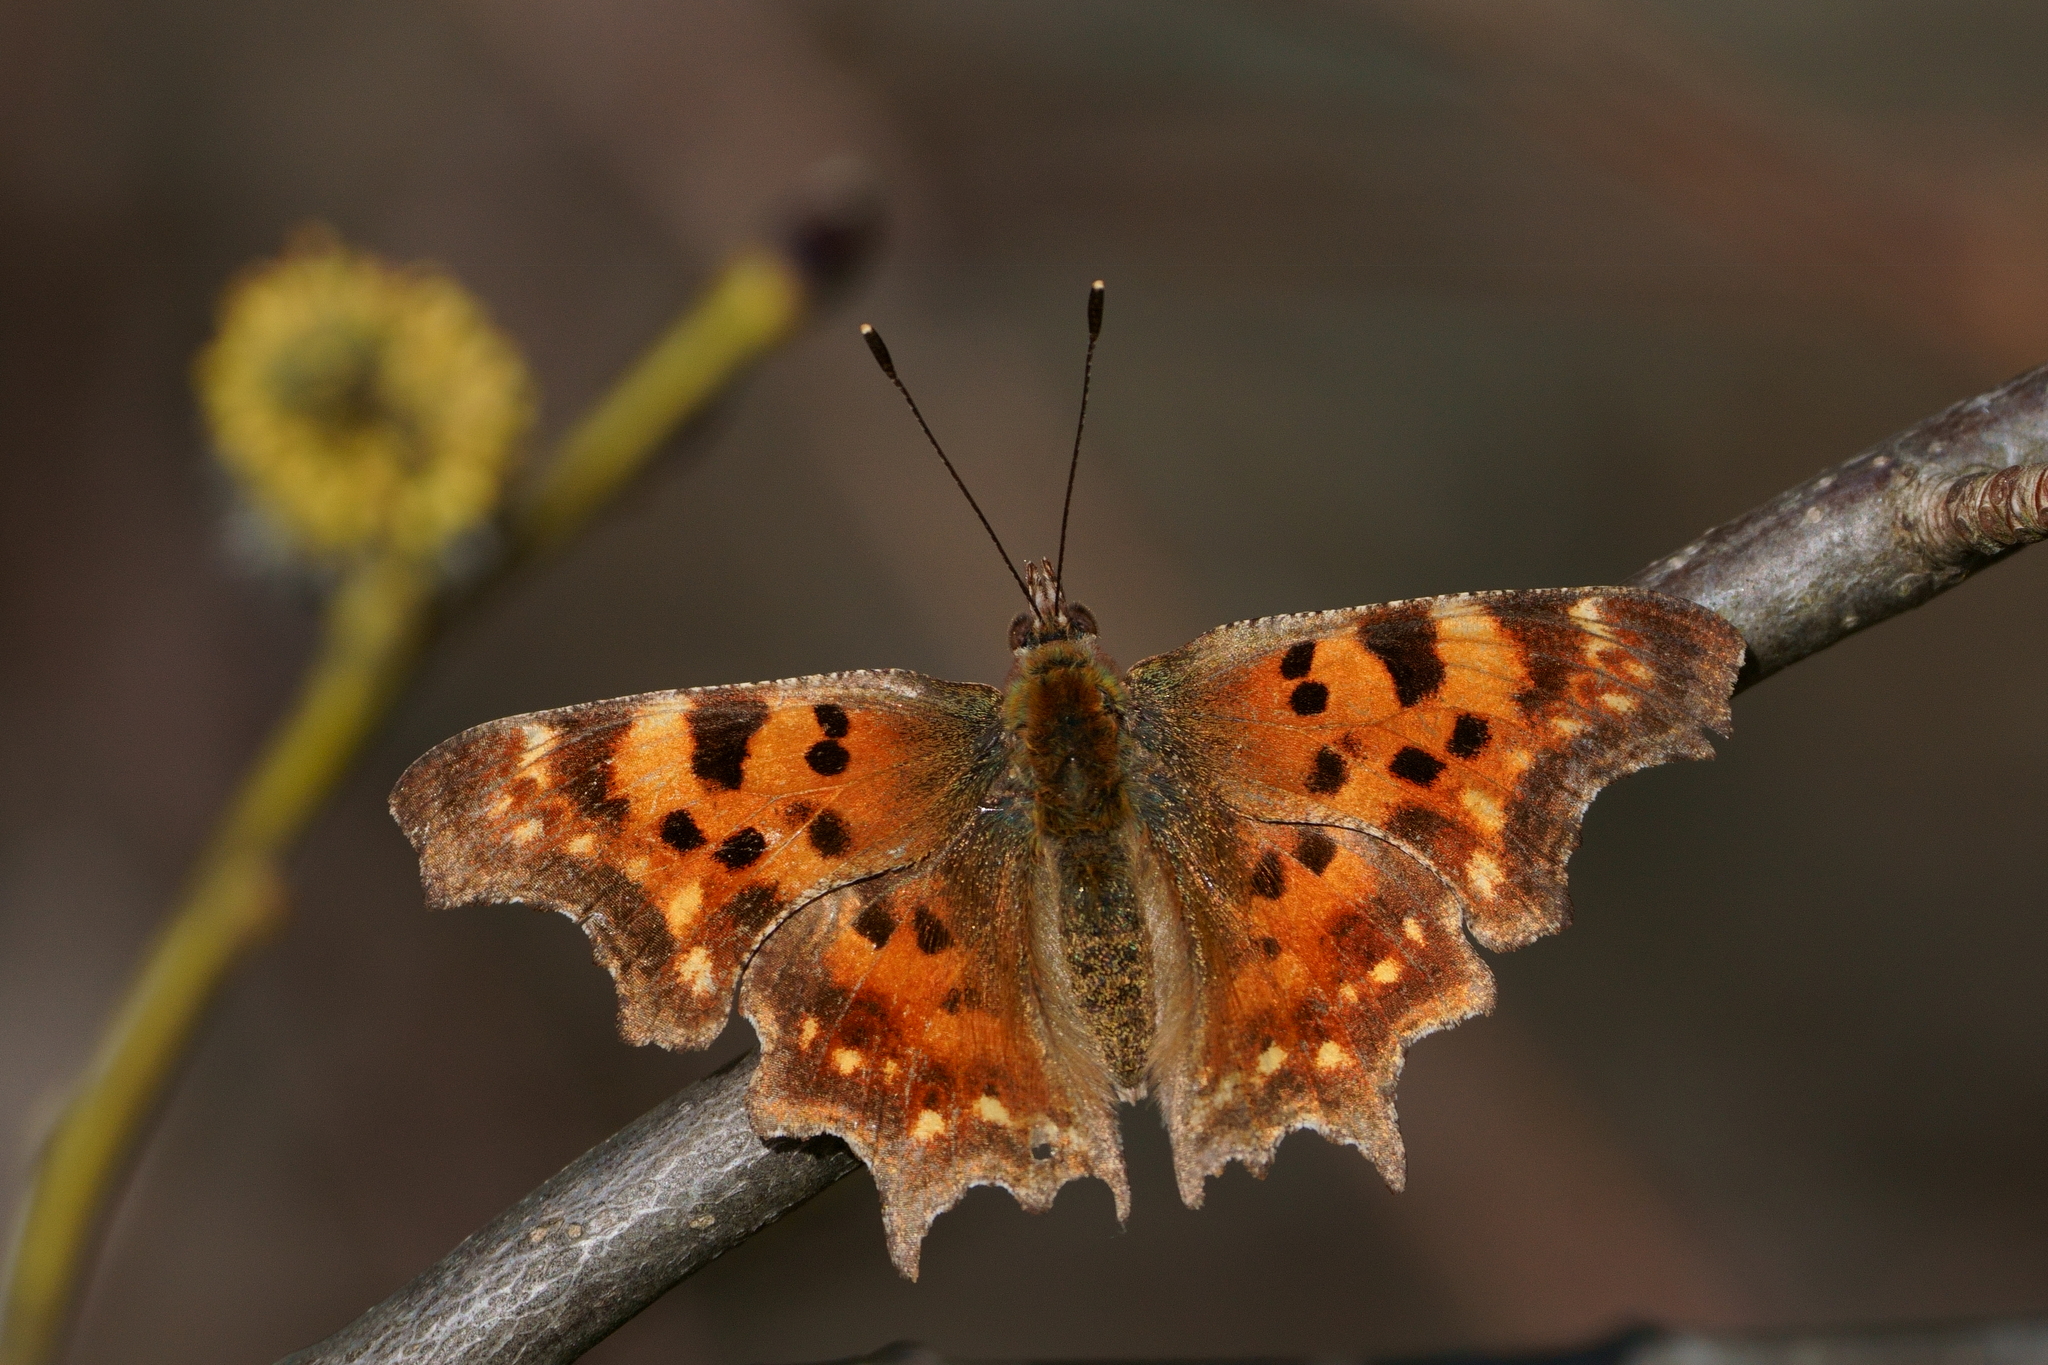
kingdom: Animalia
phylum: Arthropoda
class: Insecta
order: Lepidoptera
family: Nymphalidae
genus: Polygonia
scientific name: Polygonia c-album
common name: Comma
